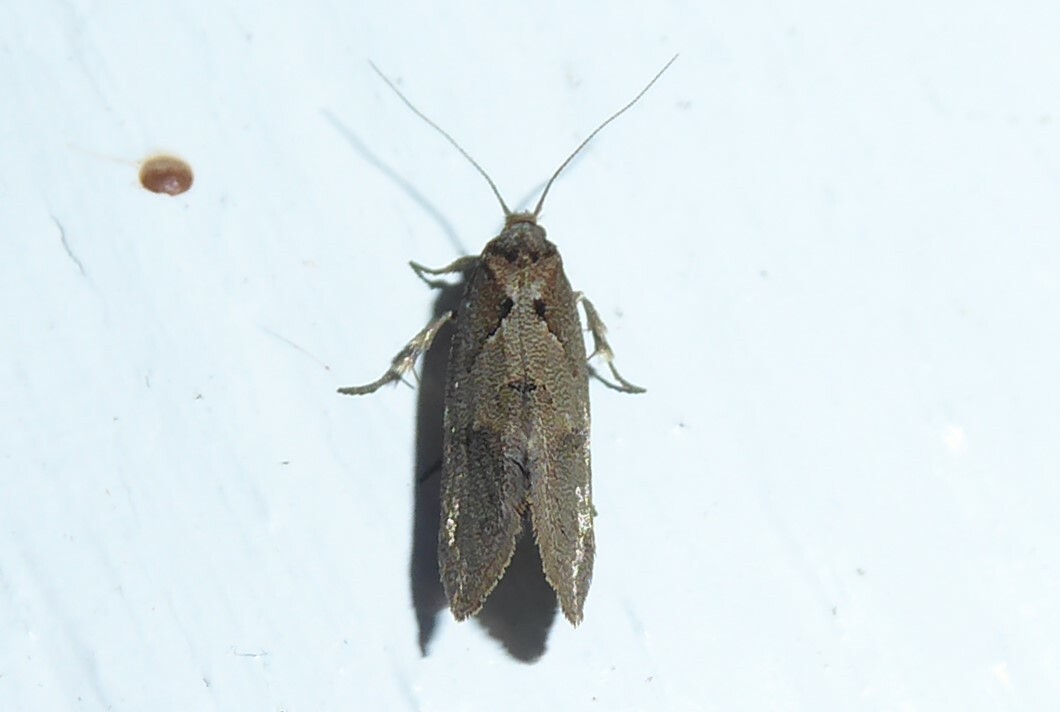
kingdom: Animalia
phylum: Arthropoda
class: Insecta
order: Lepidoptera
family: Oecophoridae
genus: Tingena
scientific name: Tingena brachyacma
